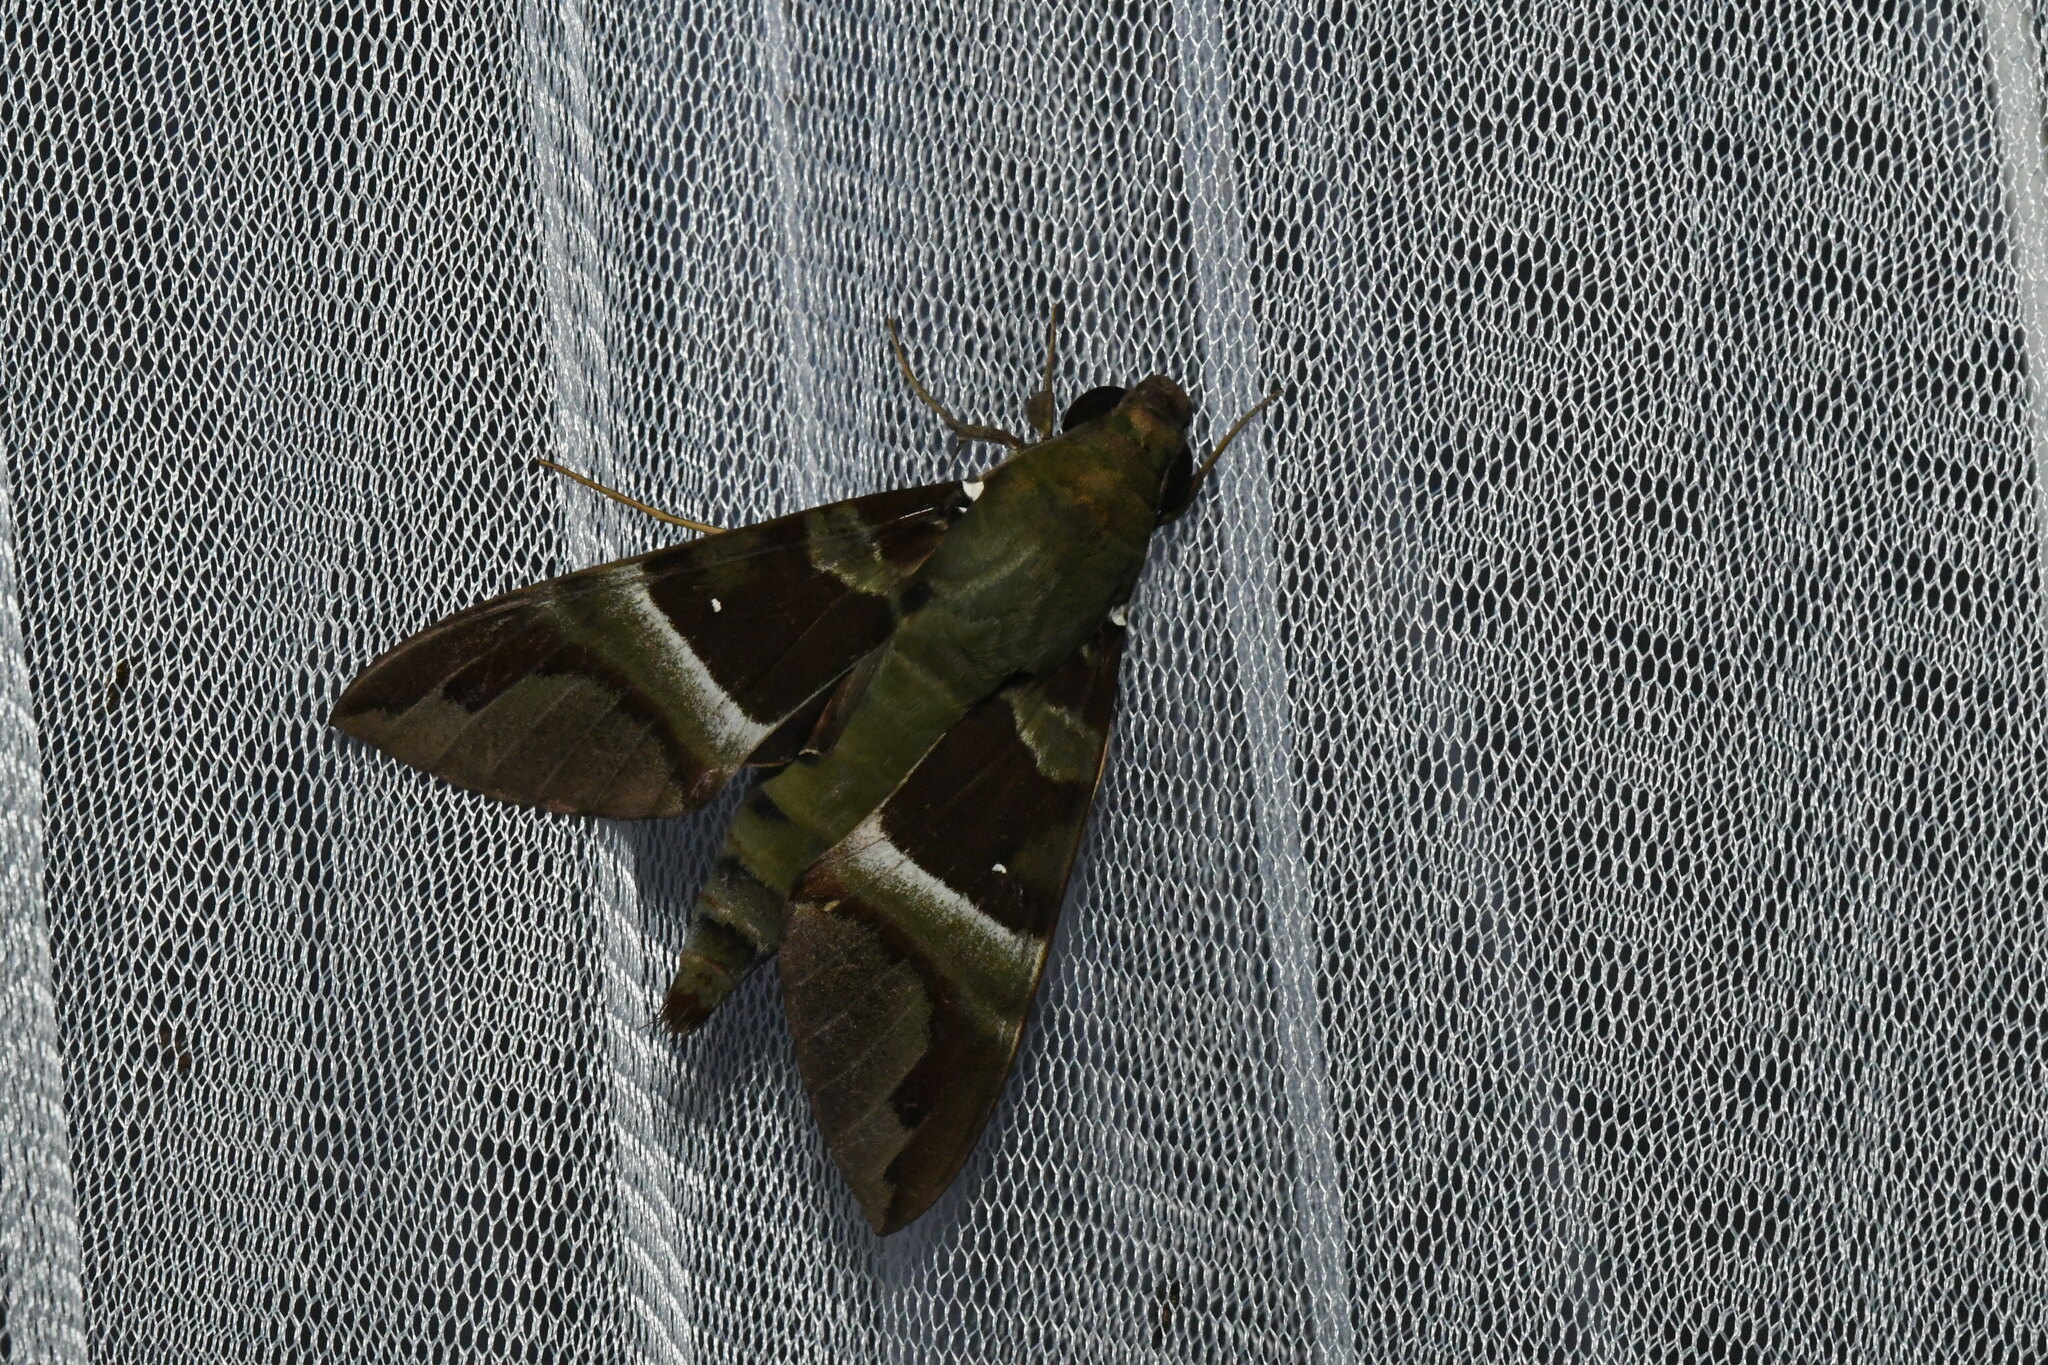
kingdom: Animalia
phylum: Arthropoda
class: Insecta
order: Lepidoptera
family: Sphingidae
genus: Nephele
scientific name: Nephele rosae
